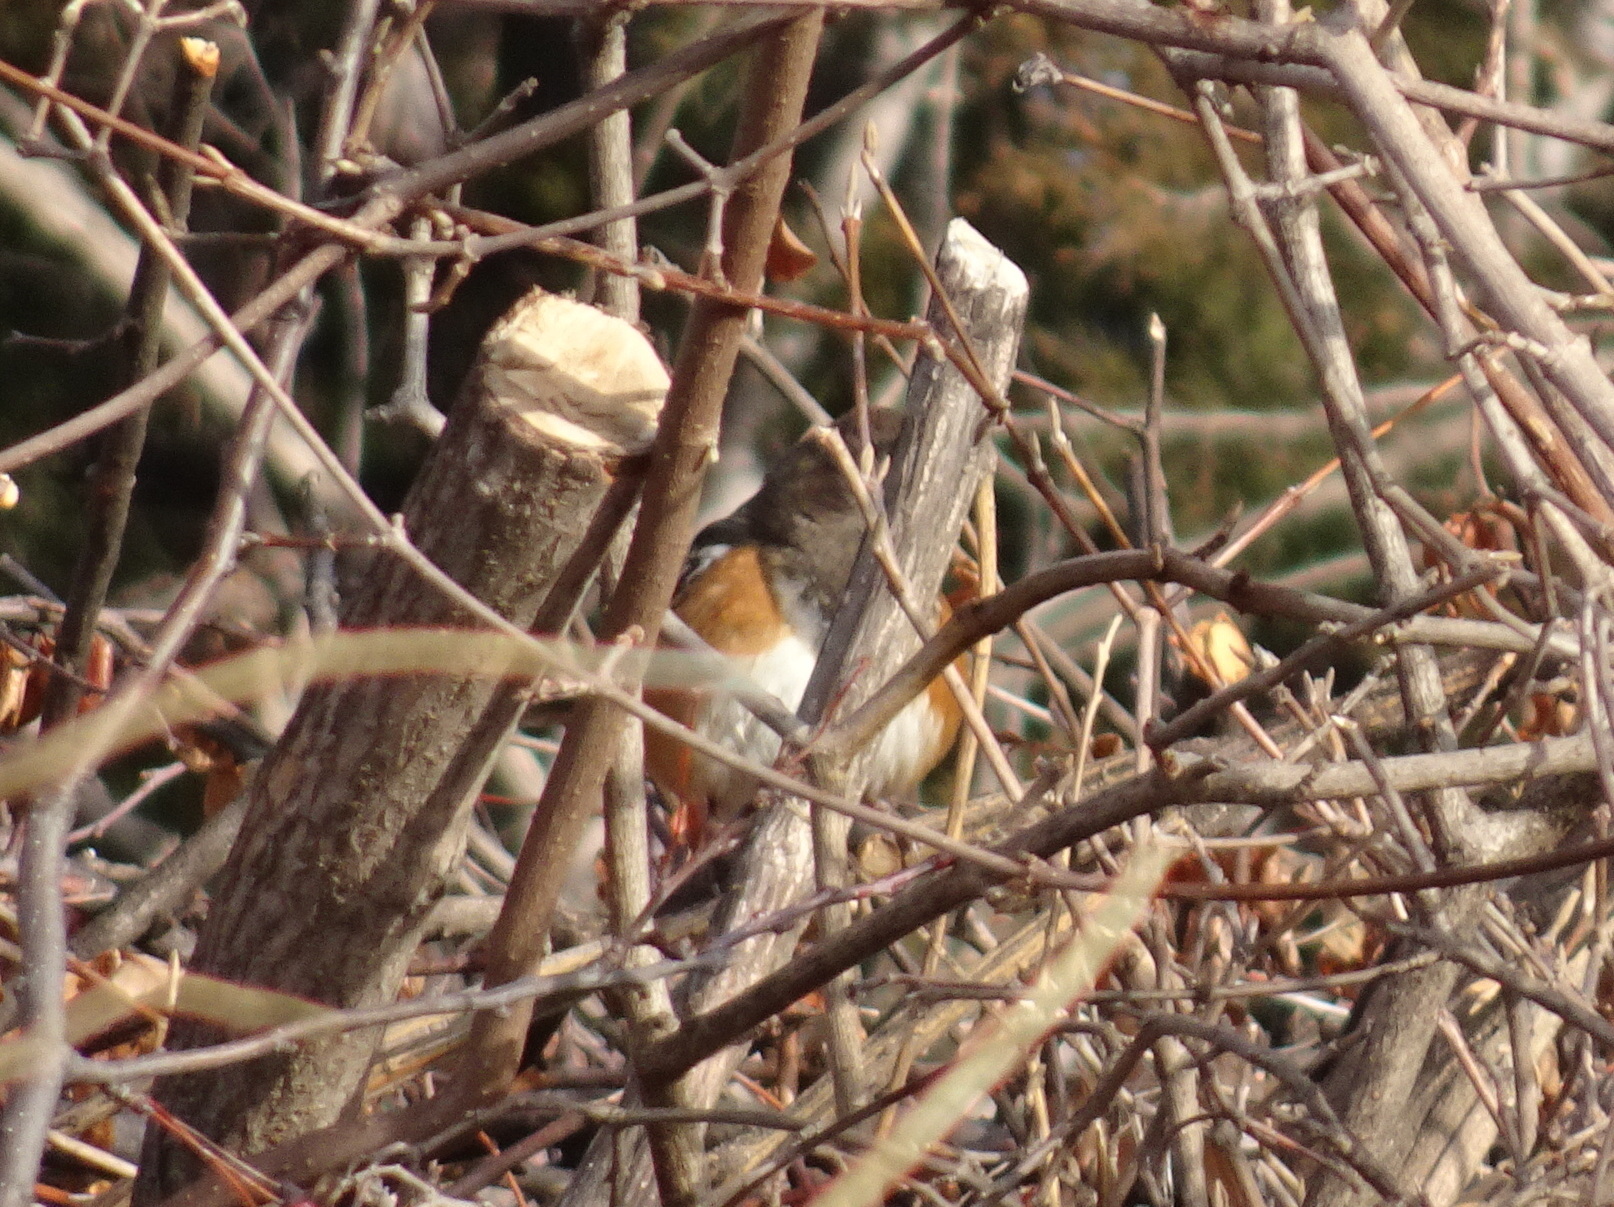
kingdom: Animalia
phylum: Chordata
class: Aves
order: Passeriformes
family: Passerellidae
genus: Pipilo
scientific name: Pipilo maculatus
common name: Spotted towhee
